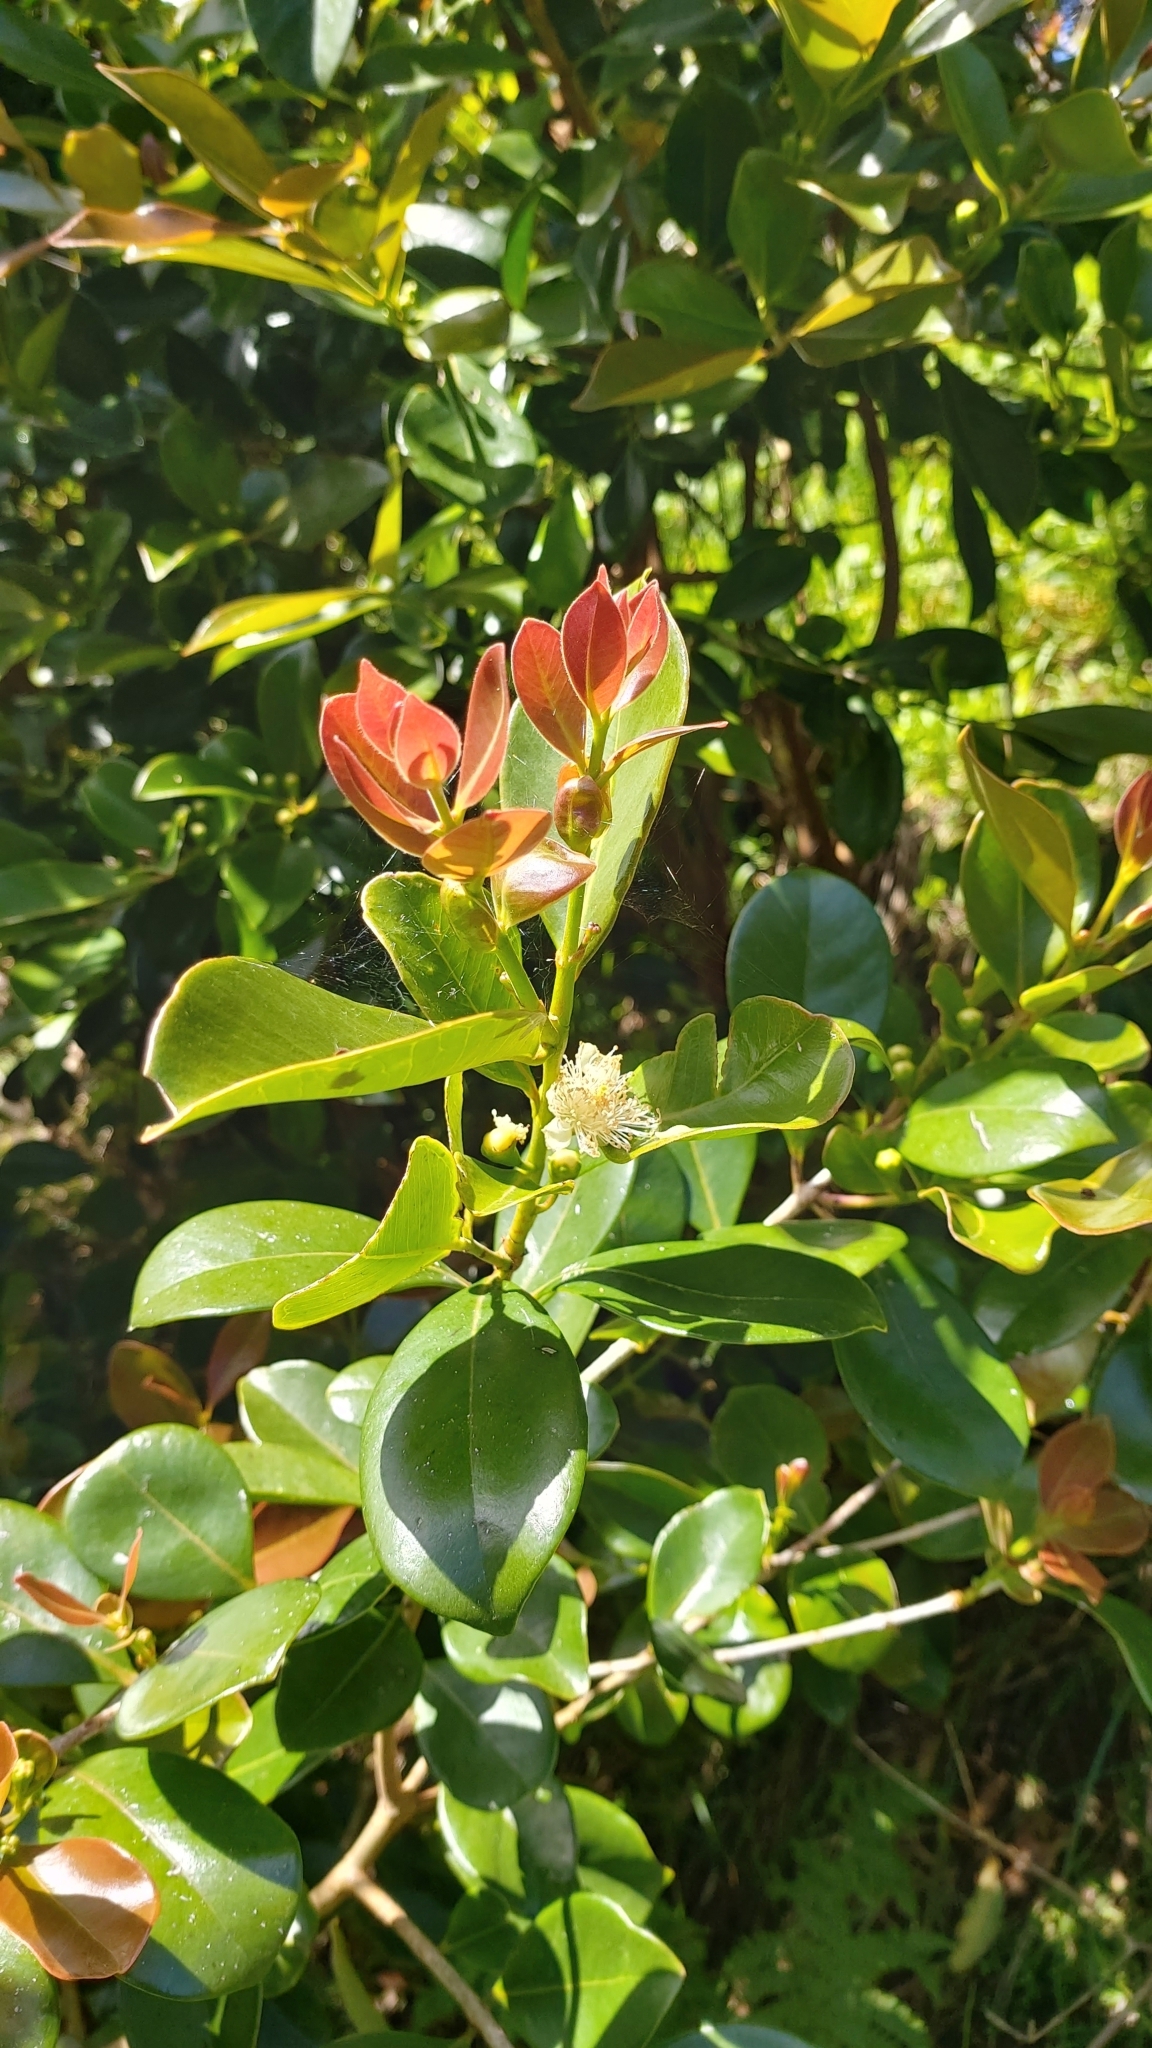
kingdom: Plantae
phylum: Tracheophyta
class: Magnoliopsida
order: Myrtales
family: Myrtaceae
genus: Psidium
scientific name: Psidium cattleianum
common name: Strawberry guava
